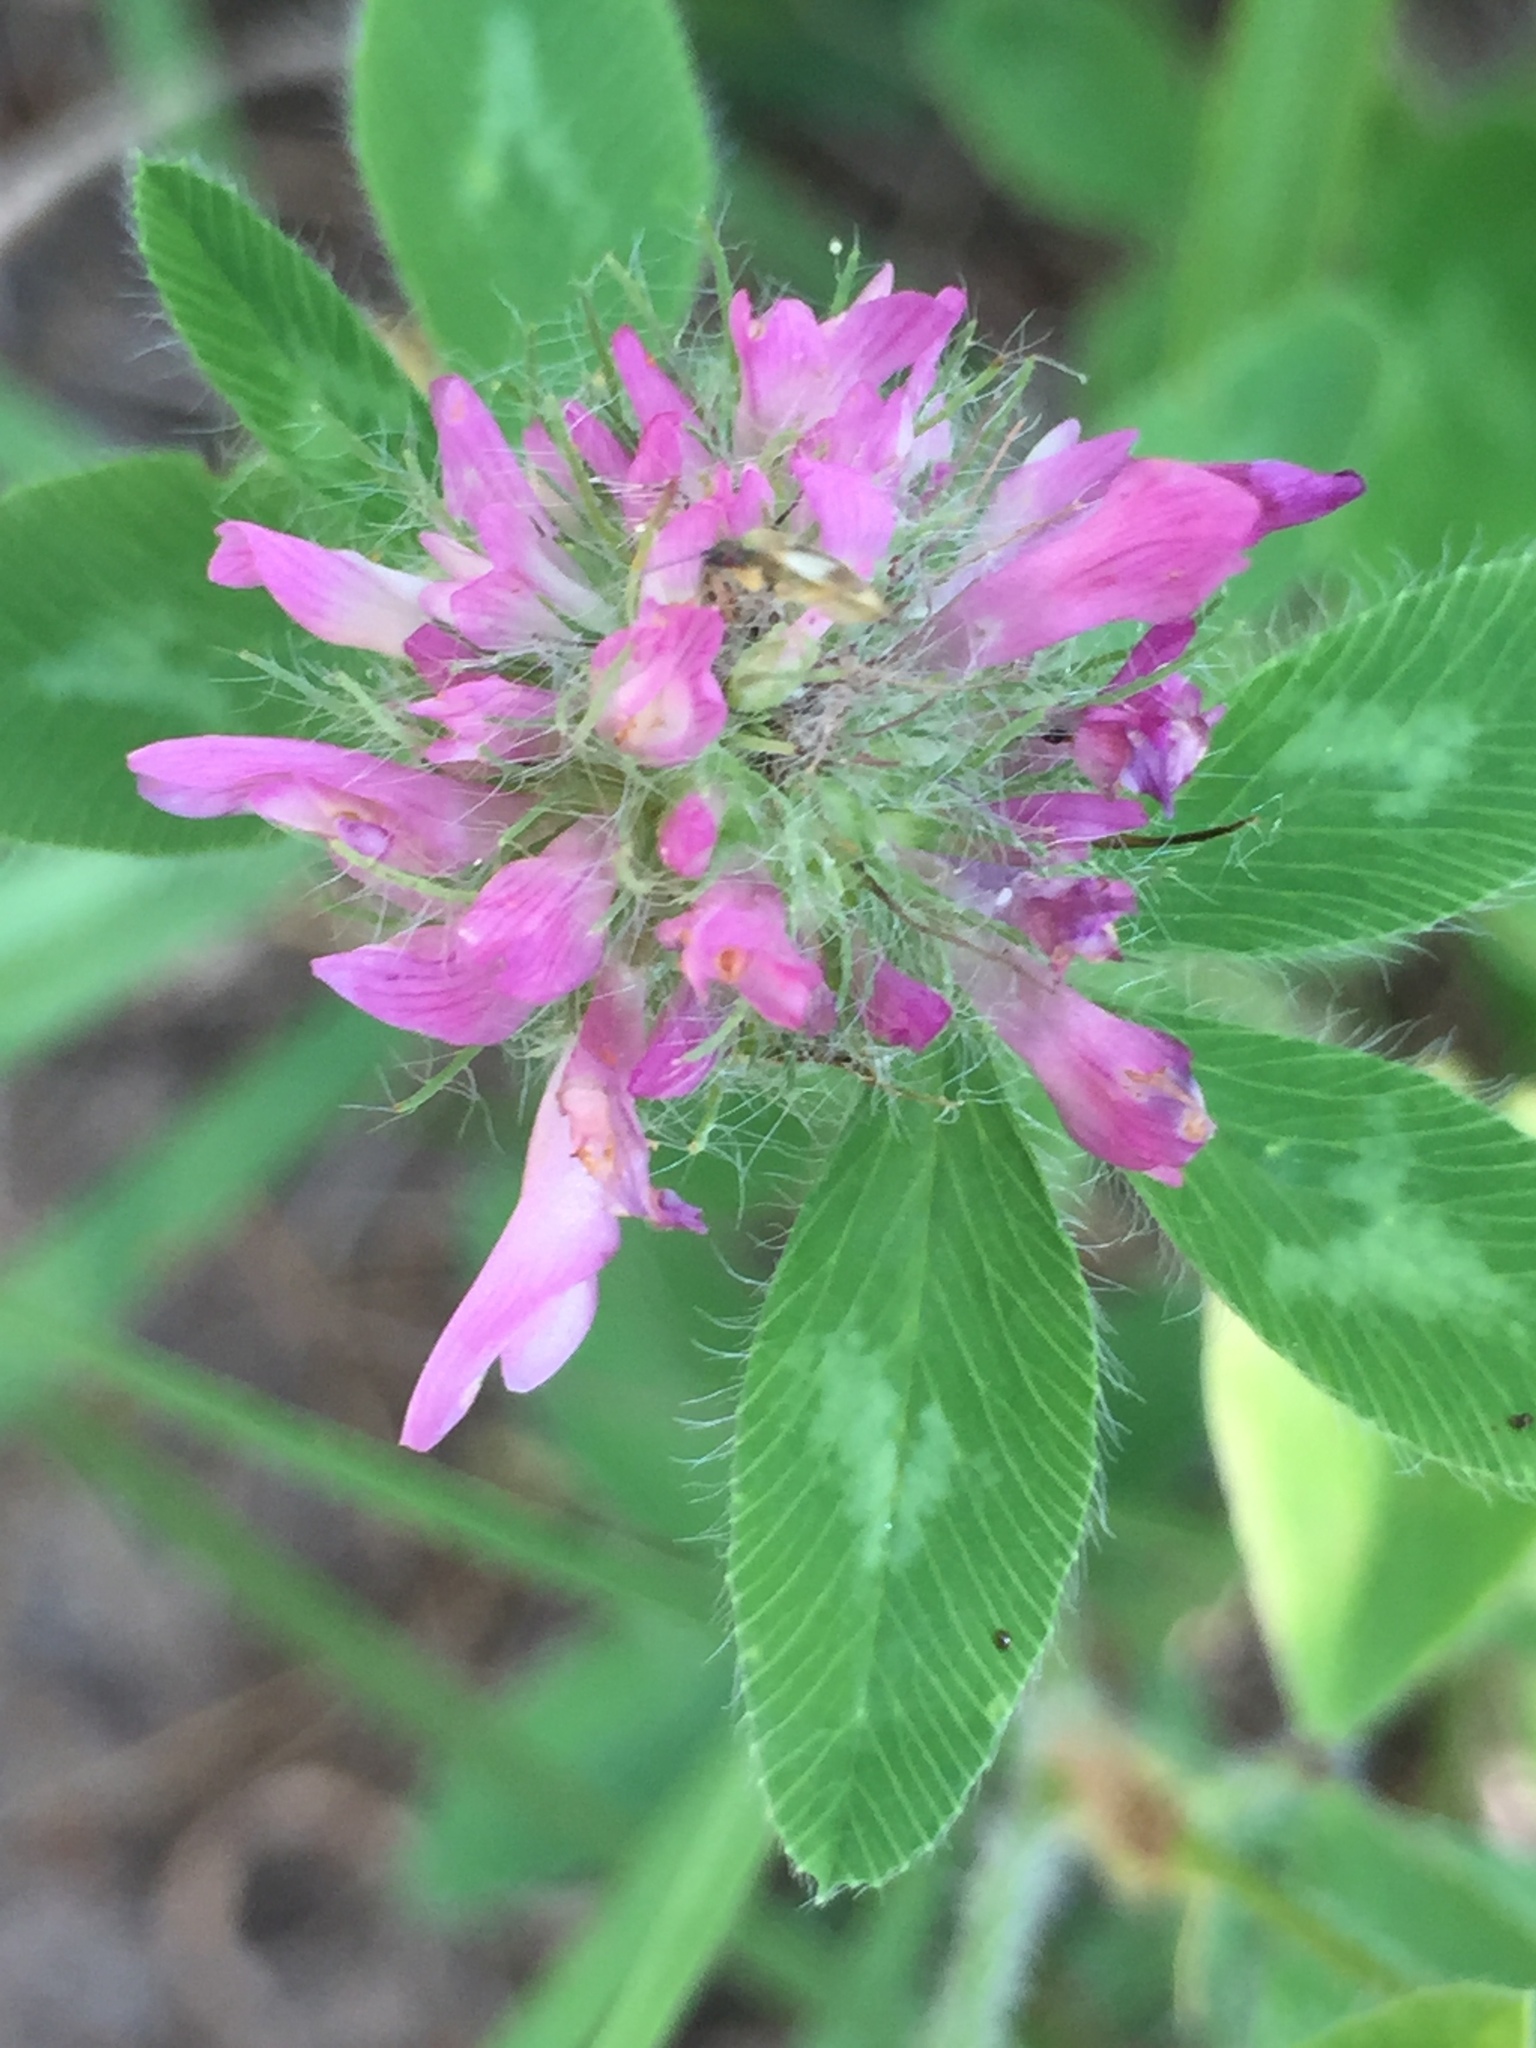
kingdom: Plantae
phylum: Tracheophyta
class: Magnoliopsida
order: Fabales
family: Fabaceae
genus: Trifolium
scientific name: Trifolium pratense
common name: Red clover
